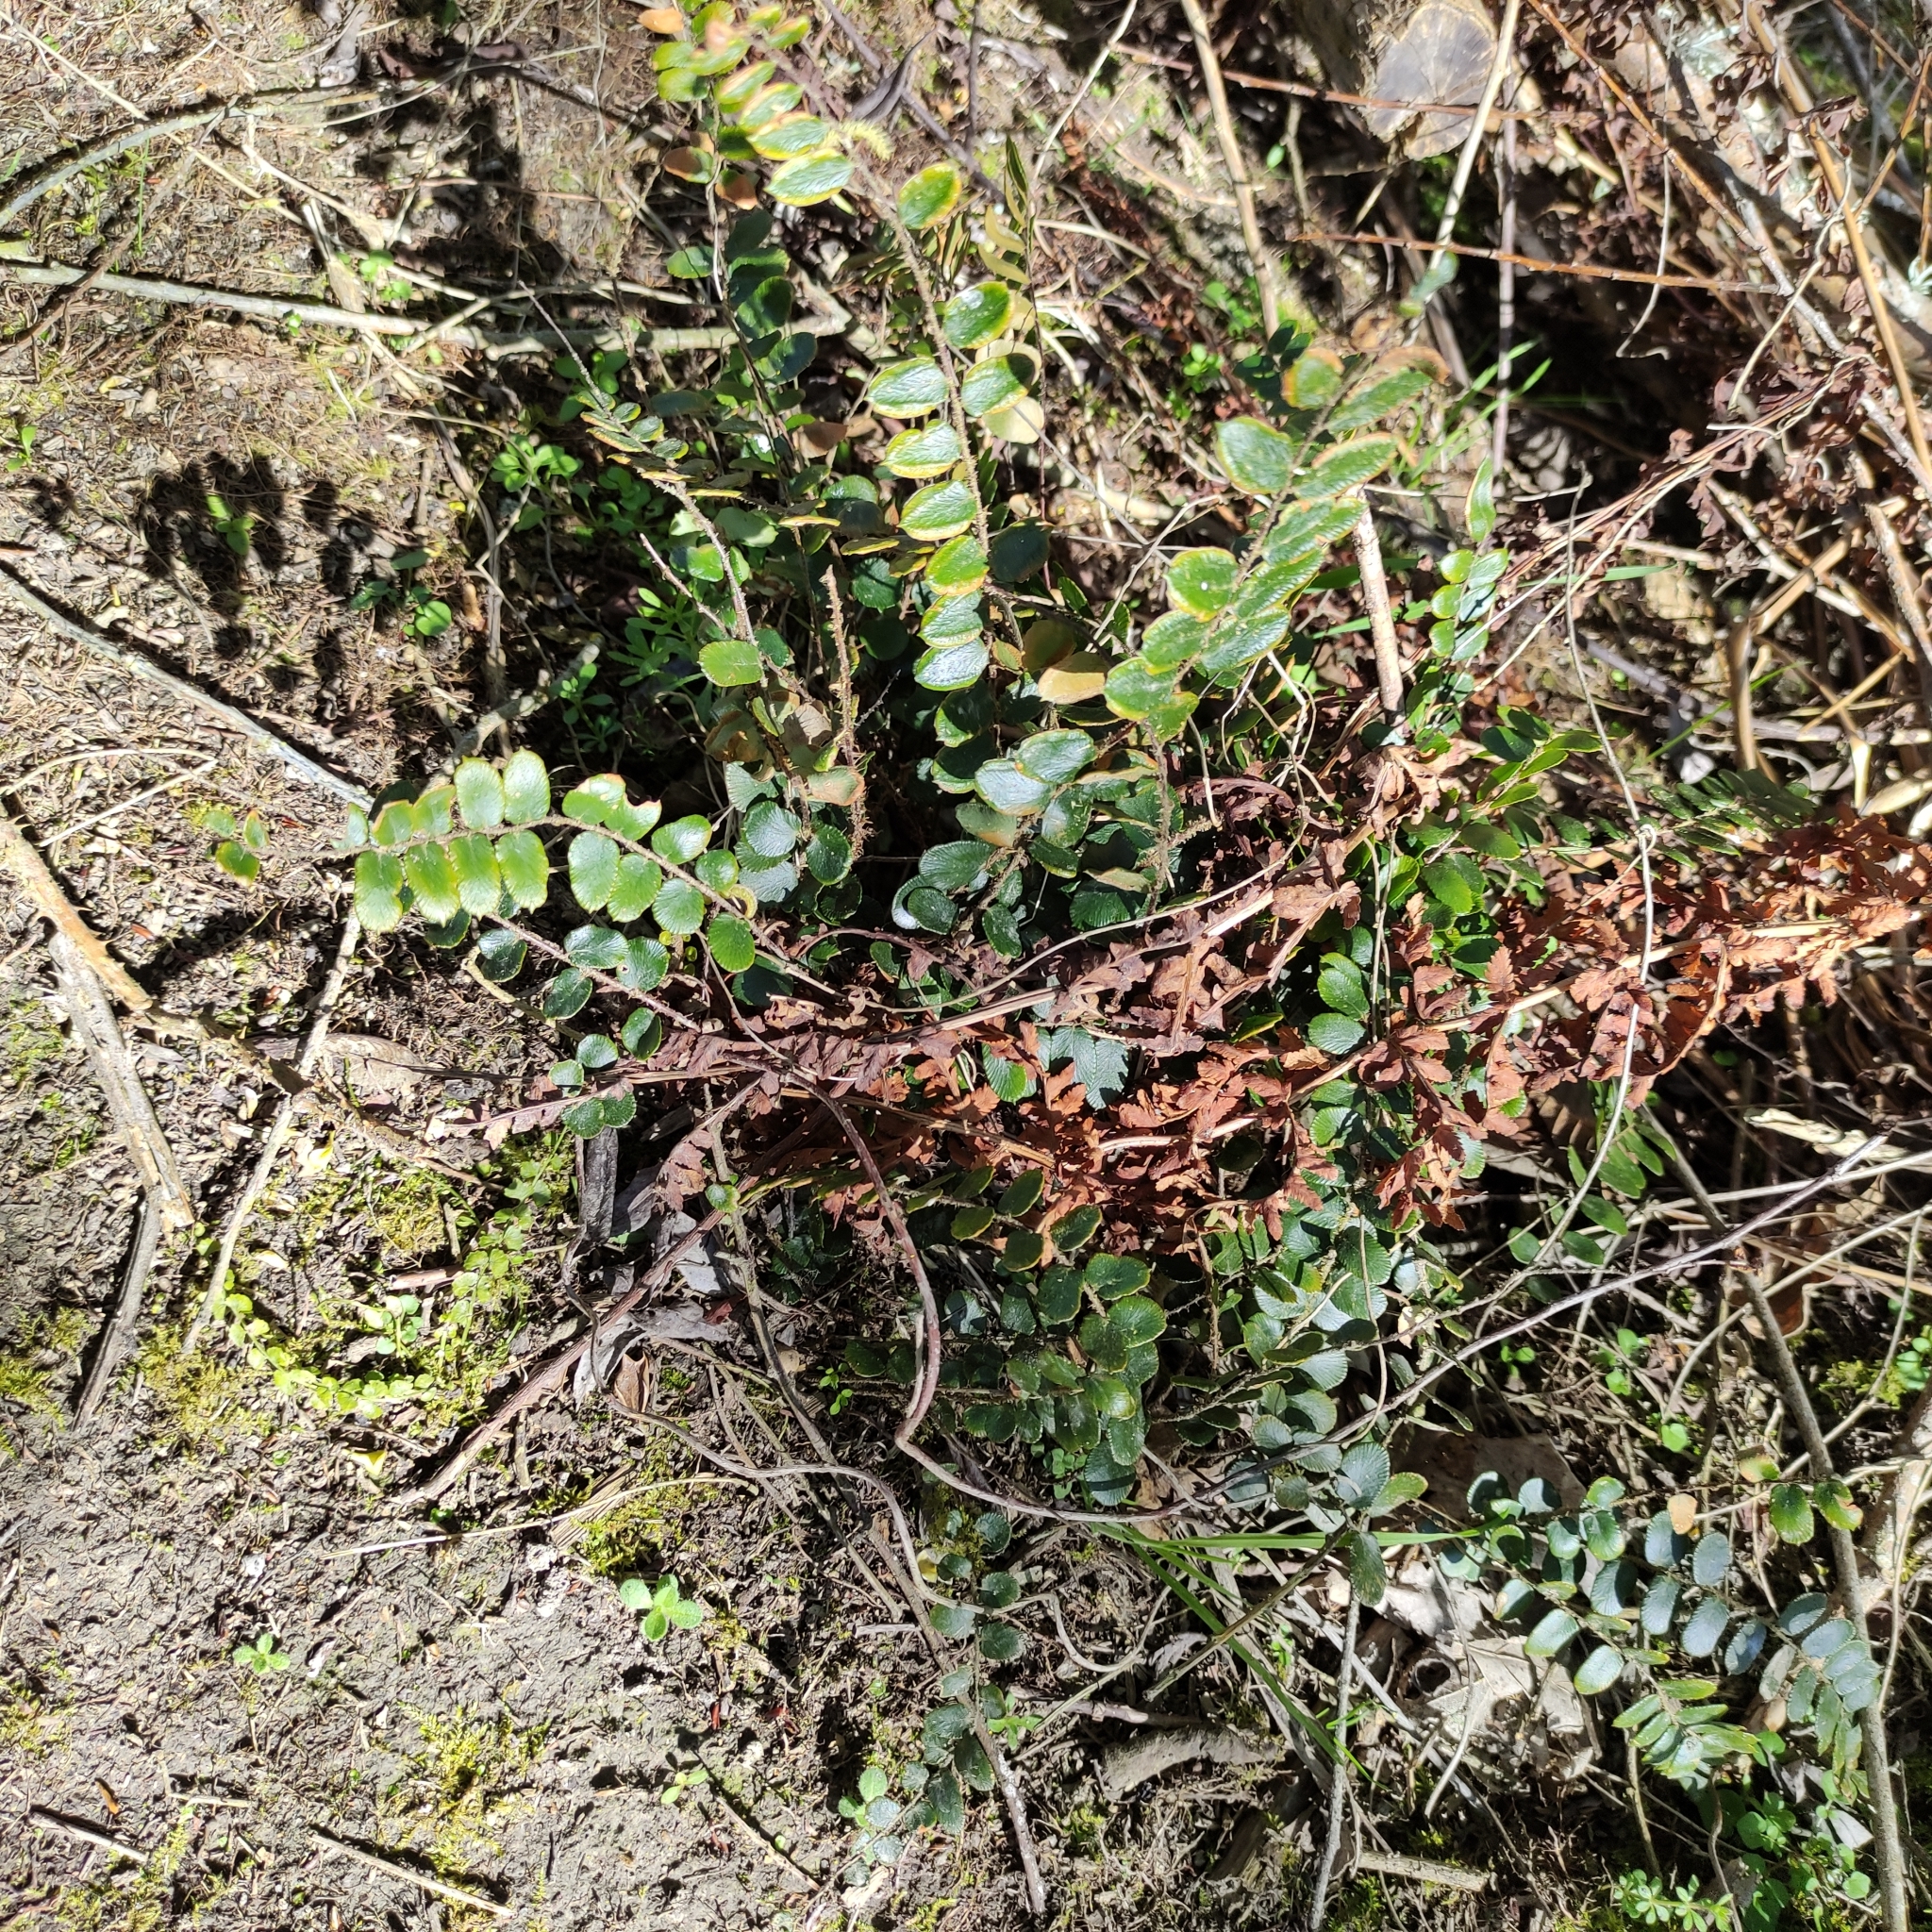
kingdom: Plantae
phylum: Tracheophyta
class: Polypodiopsida
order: Polypodiales
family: Pteridaceae
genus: Pellaea
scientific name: Pellaea rotundifolia
